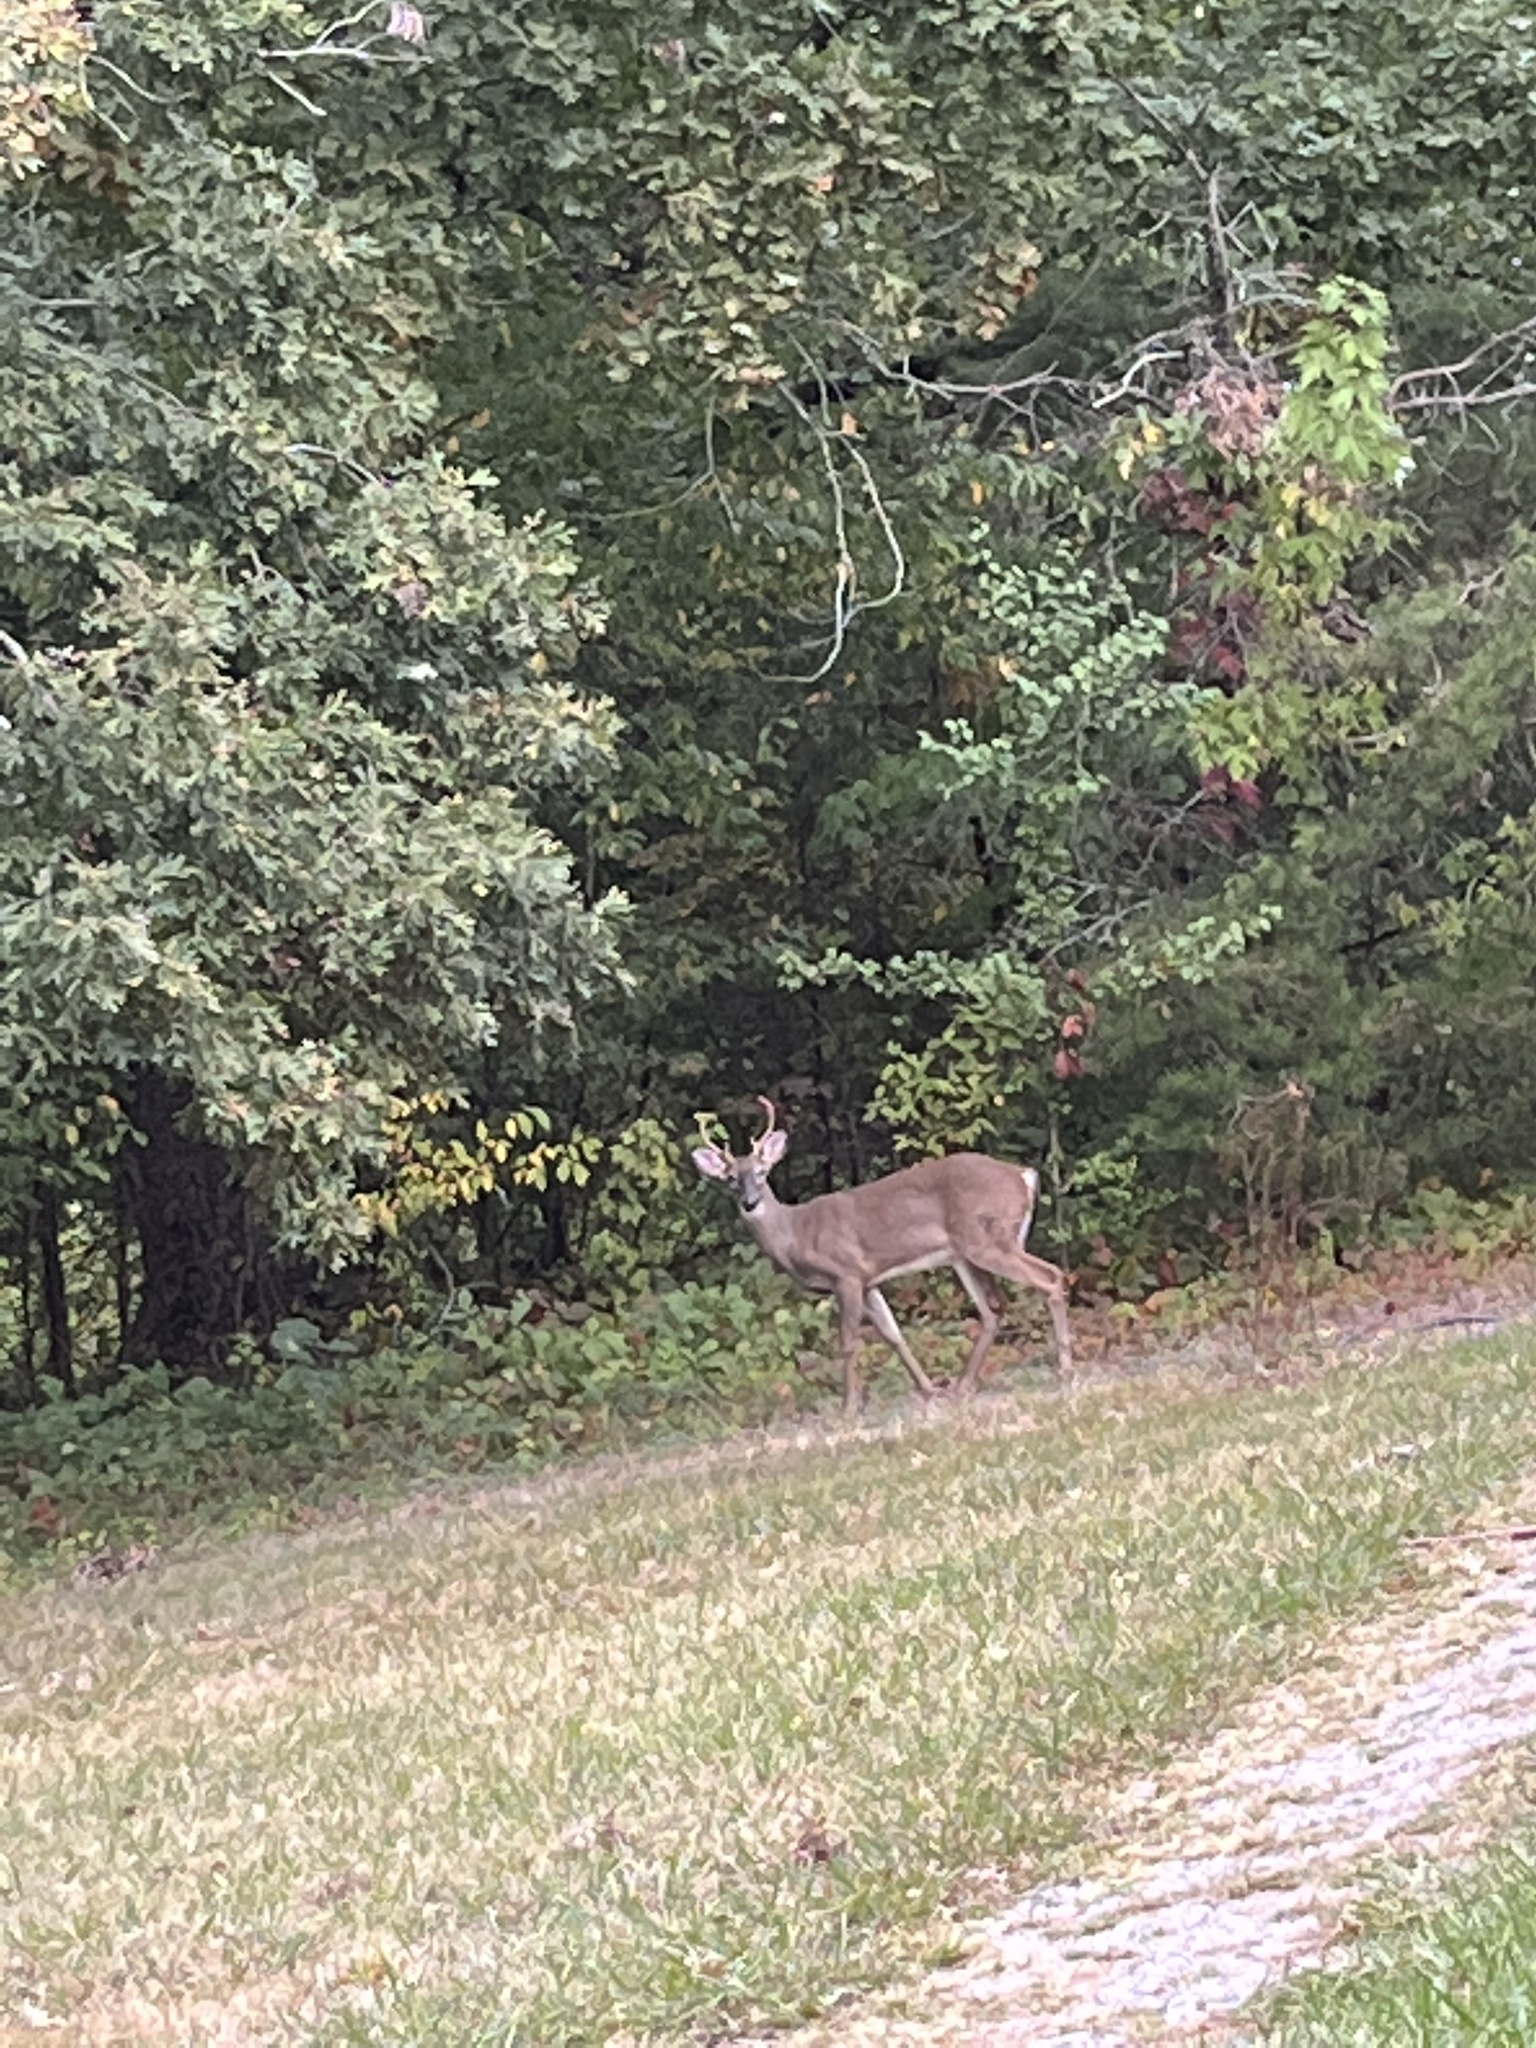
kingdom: Animalia
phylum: Chordata
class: Mammalia
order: Artiodactyla
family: Cervidae
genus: Odocoileus
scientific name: Odocoileus virginianus
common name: White-tailed deer
